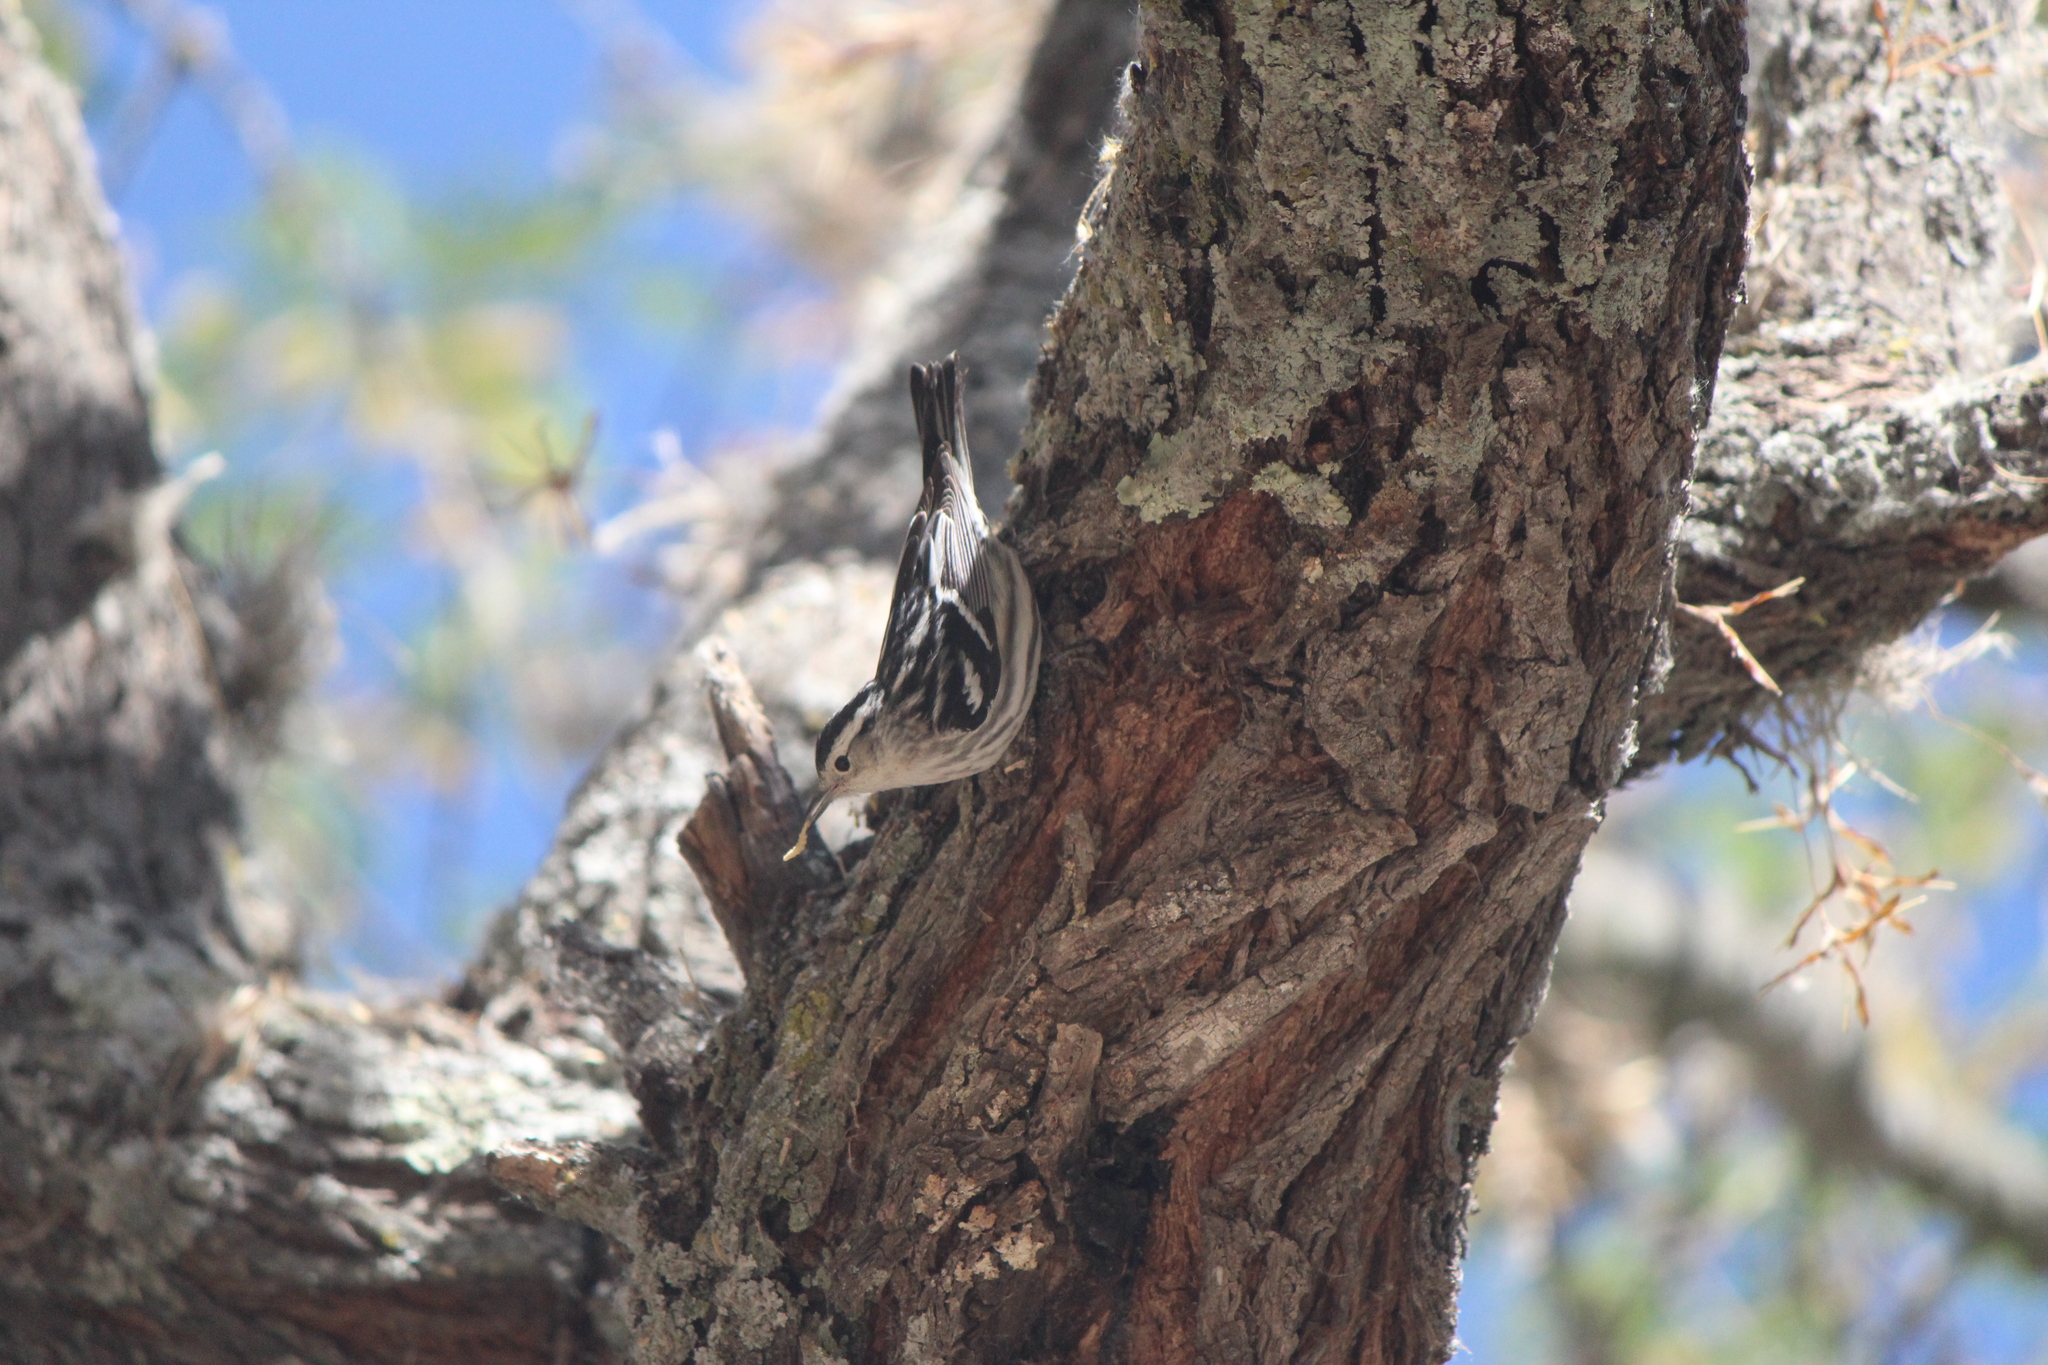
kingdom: Animalia
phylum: Chordata
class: Aves
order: Passeriformes
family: Parulidae
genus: Mniotilta
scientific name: Mniotilta varia
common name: Black-and-white warbler
